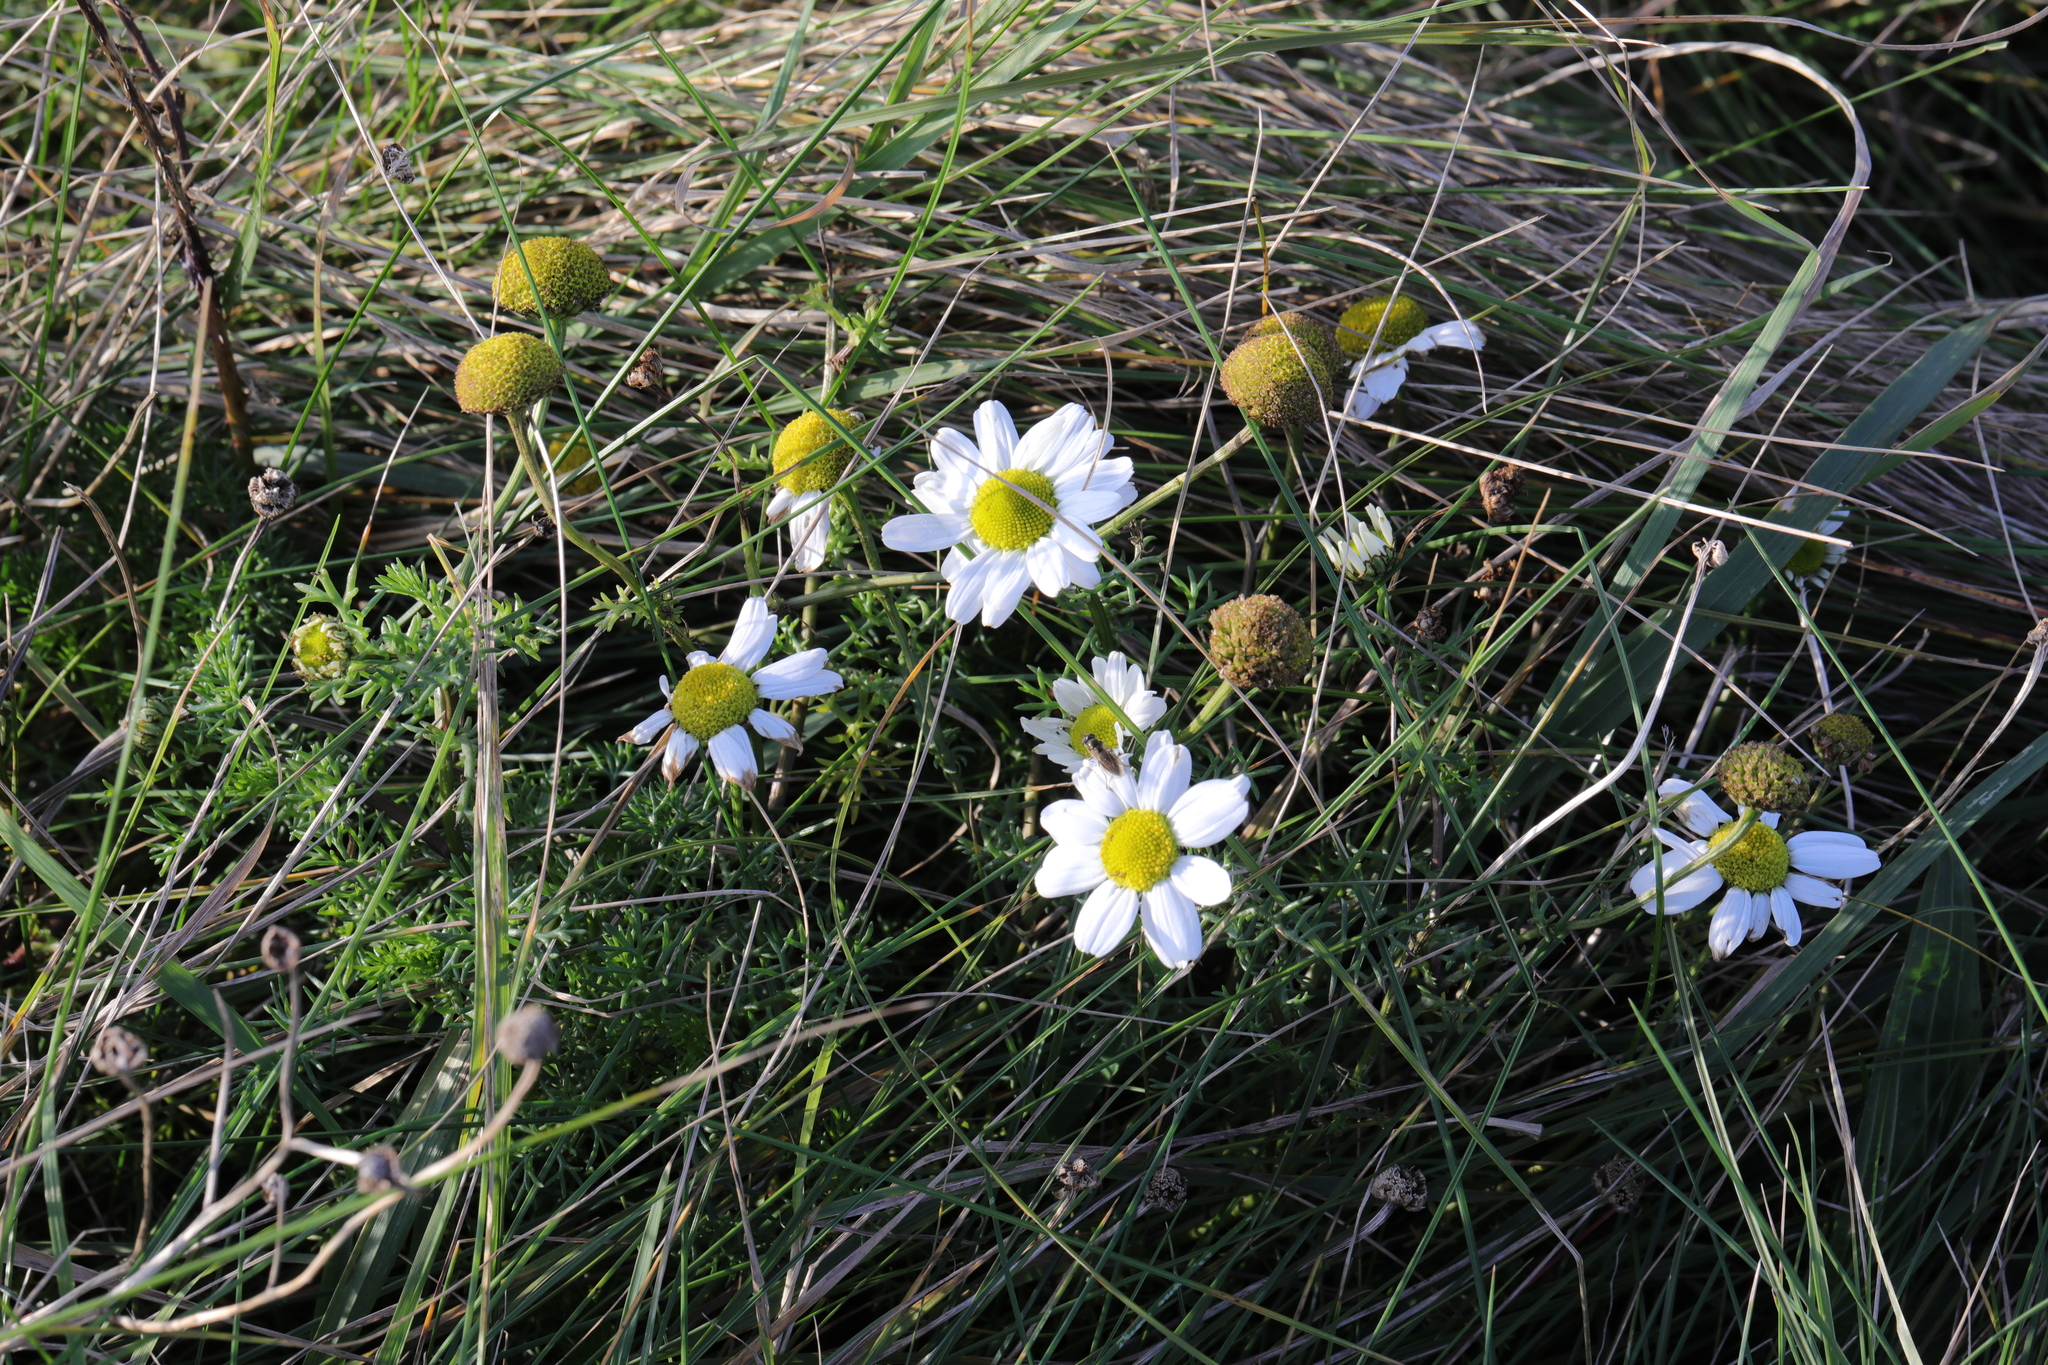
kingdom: Plantae
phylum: Tracheophyta
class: Magnoliopsida
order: Asterales
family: Asteraceae
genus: Tripleurospermum
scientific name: Tripleurospermum maritimum
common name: Sea mayweed
